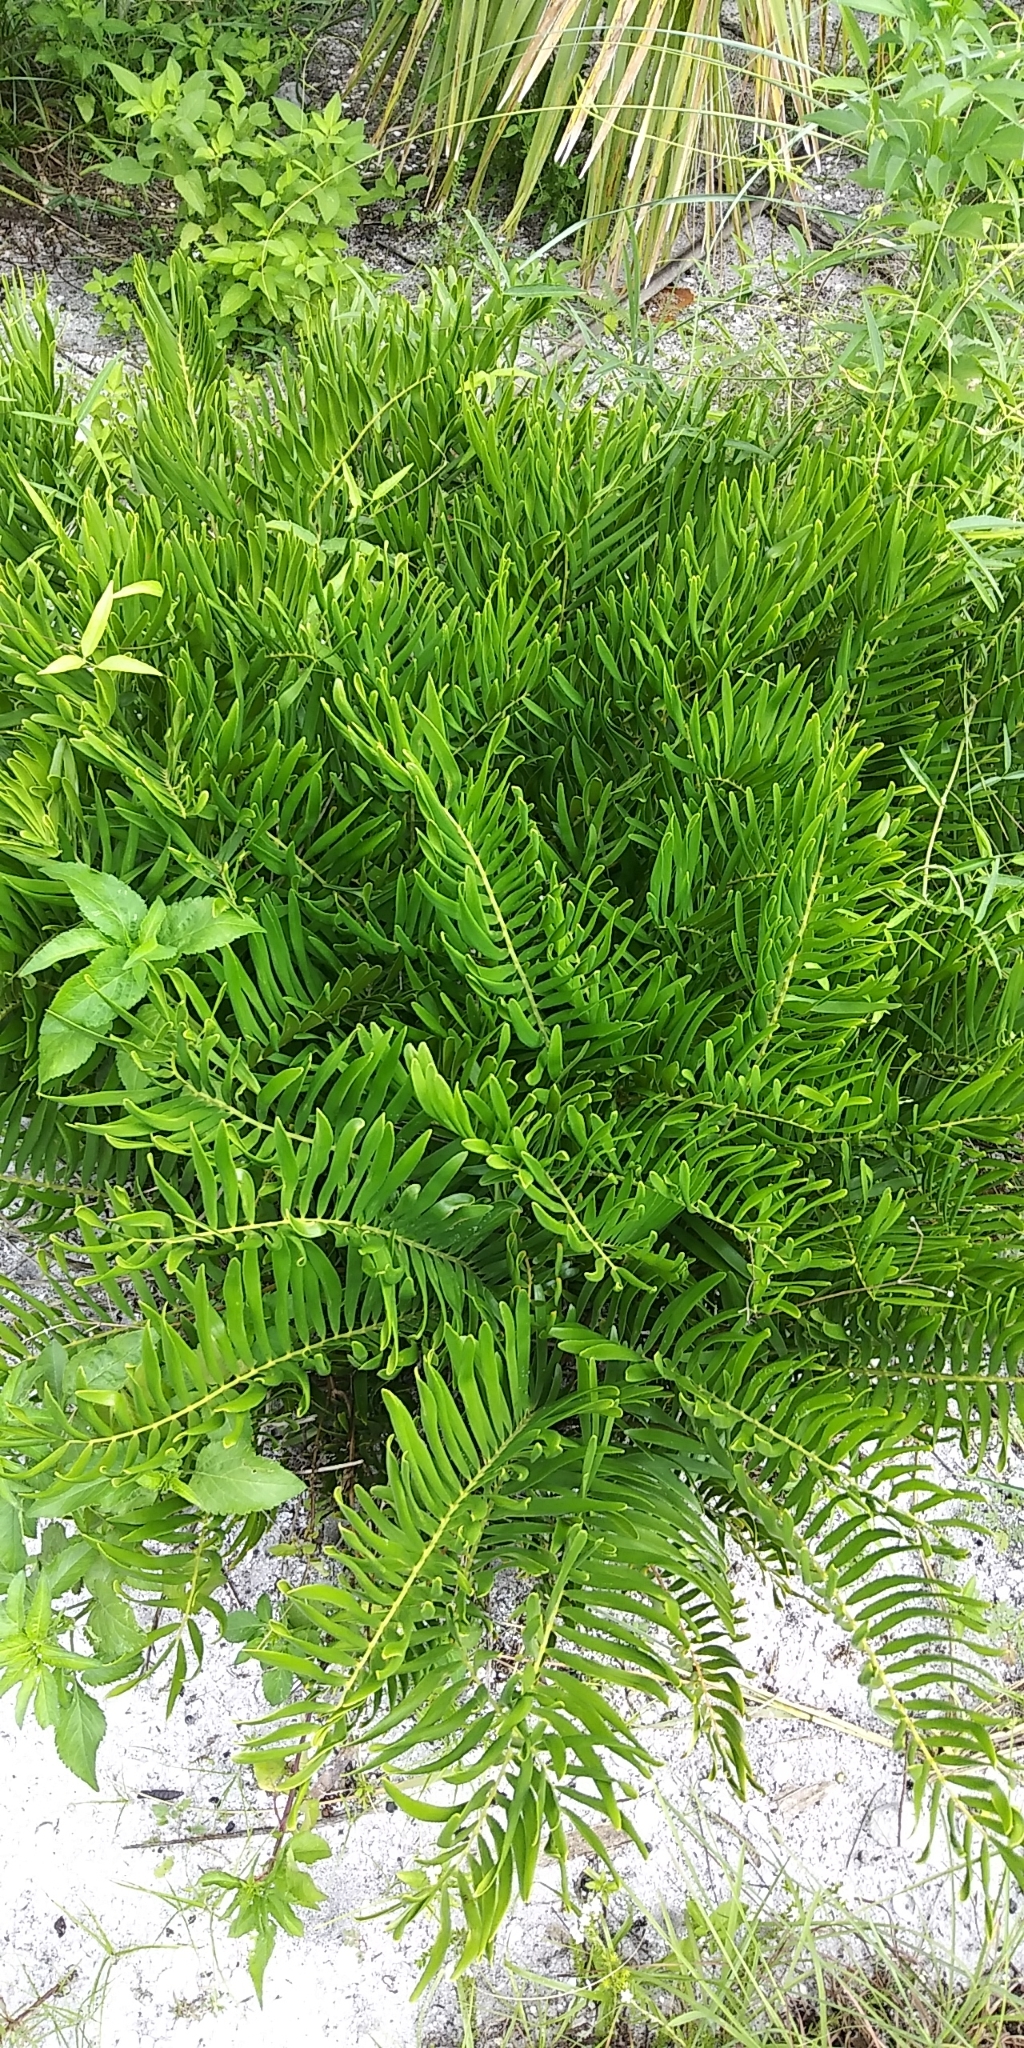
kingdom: Plantae
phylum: Tracheophyta
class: Cycadopsida
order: Cycadales
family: Zamiaceae
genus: Zamia
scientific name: Zamia integrifolia
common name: Florida arrowroot
